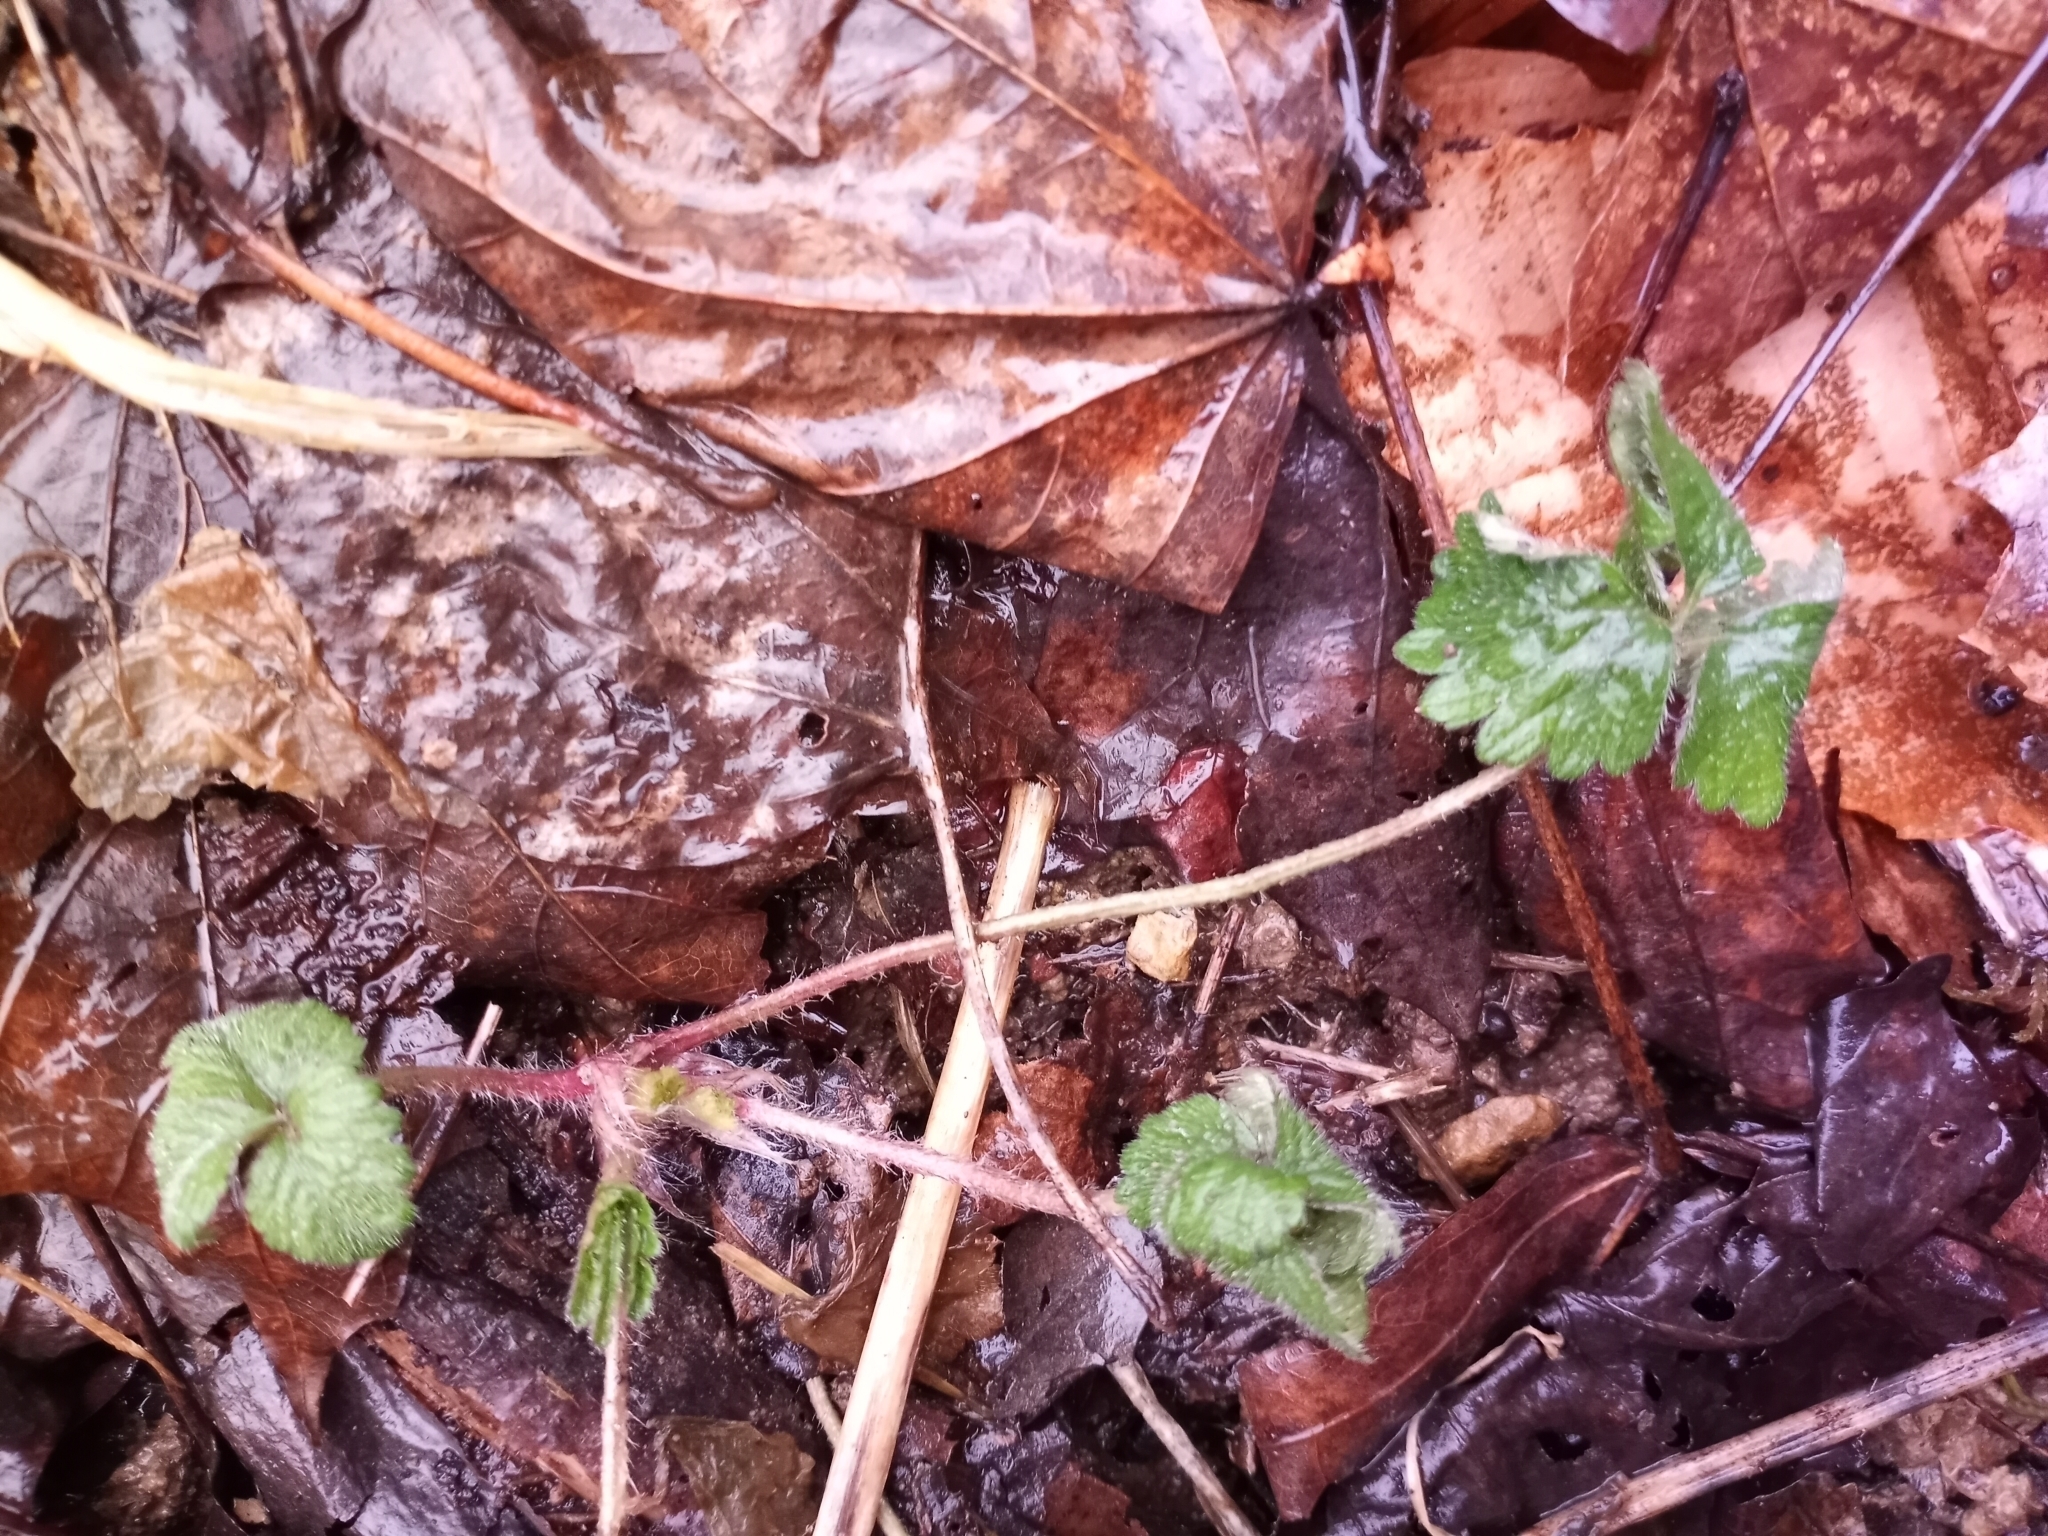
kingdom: Plantae
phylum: Tracheophyta
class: Magnoliopsida
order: Rosales
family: Rosaceae
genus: Potentilla
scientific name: Potentilla indica
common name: Yellow-flowered strawberry
